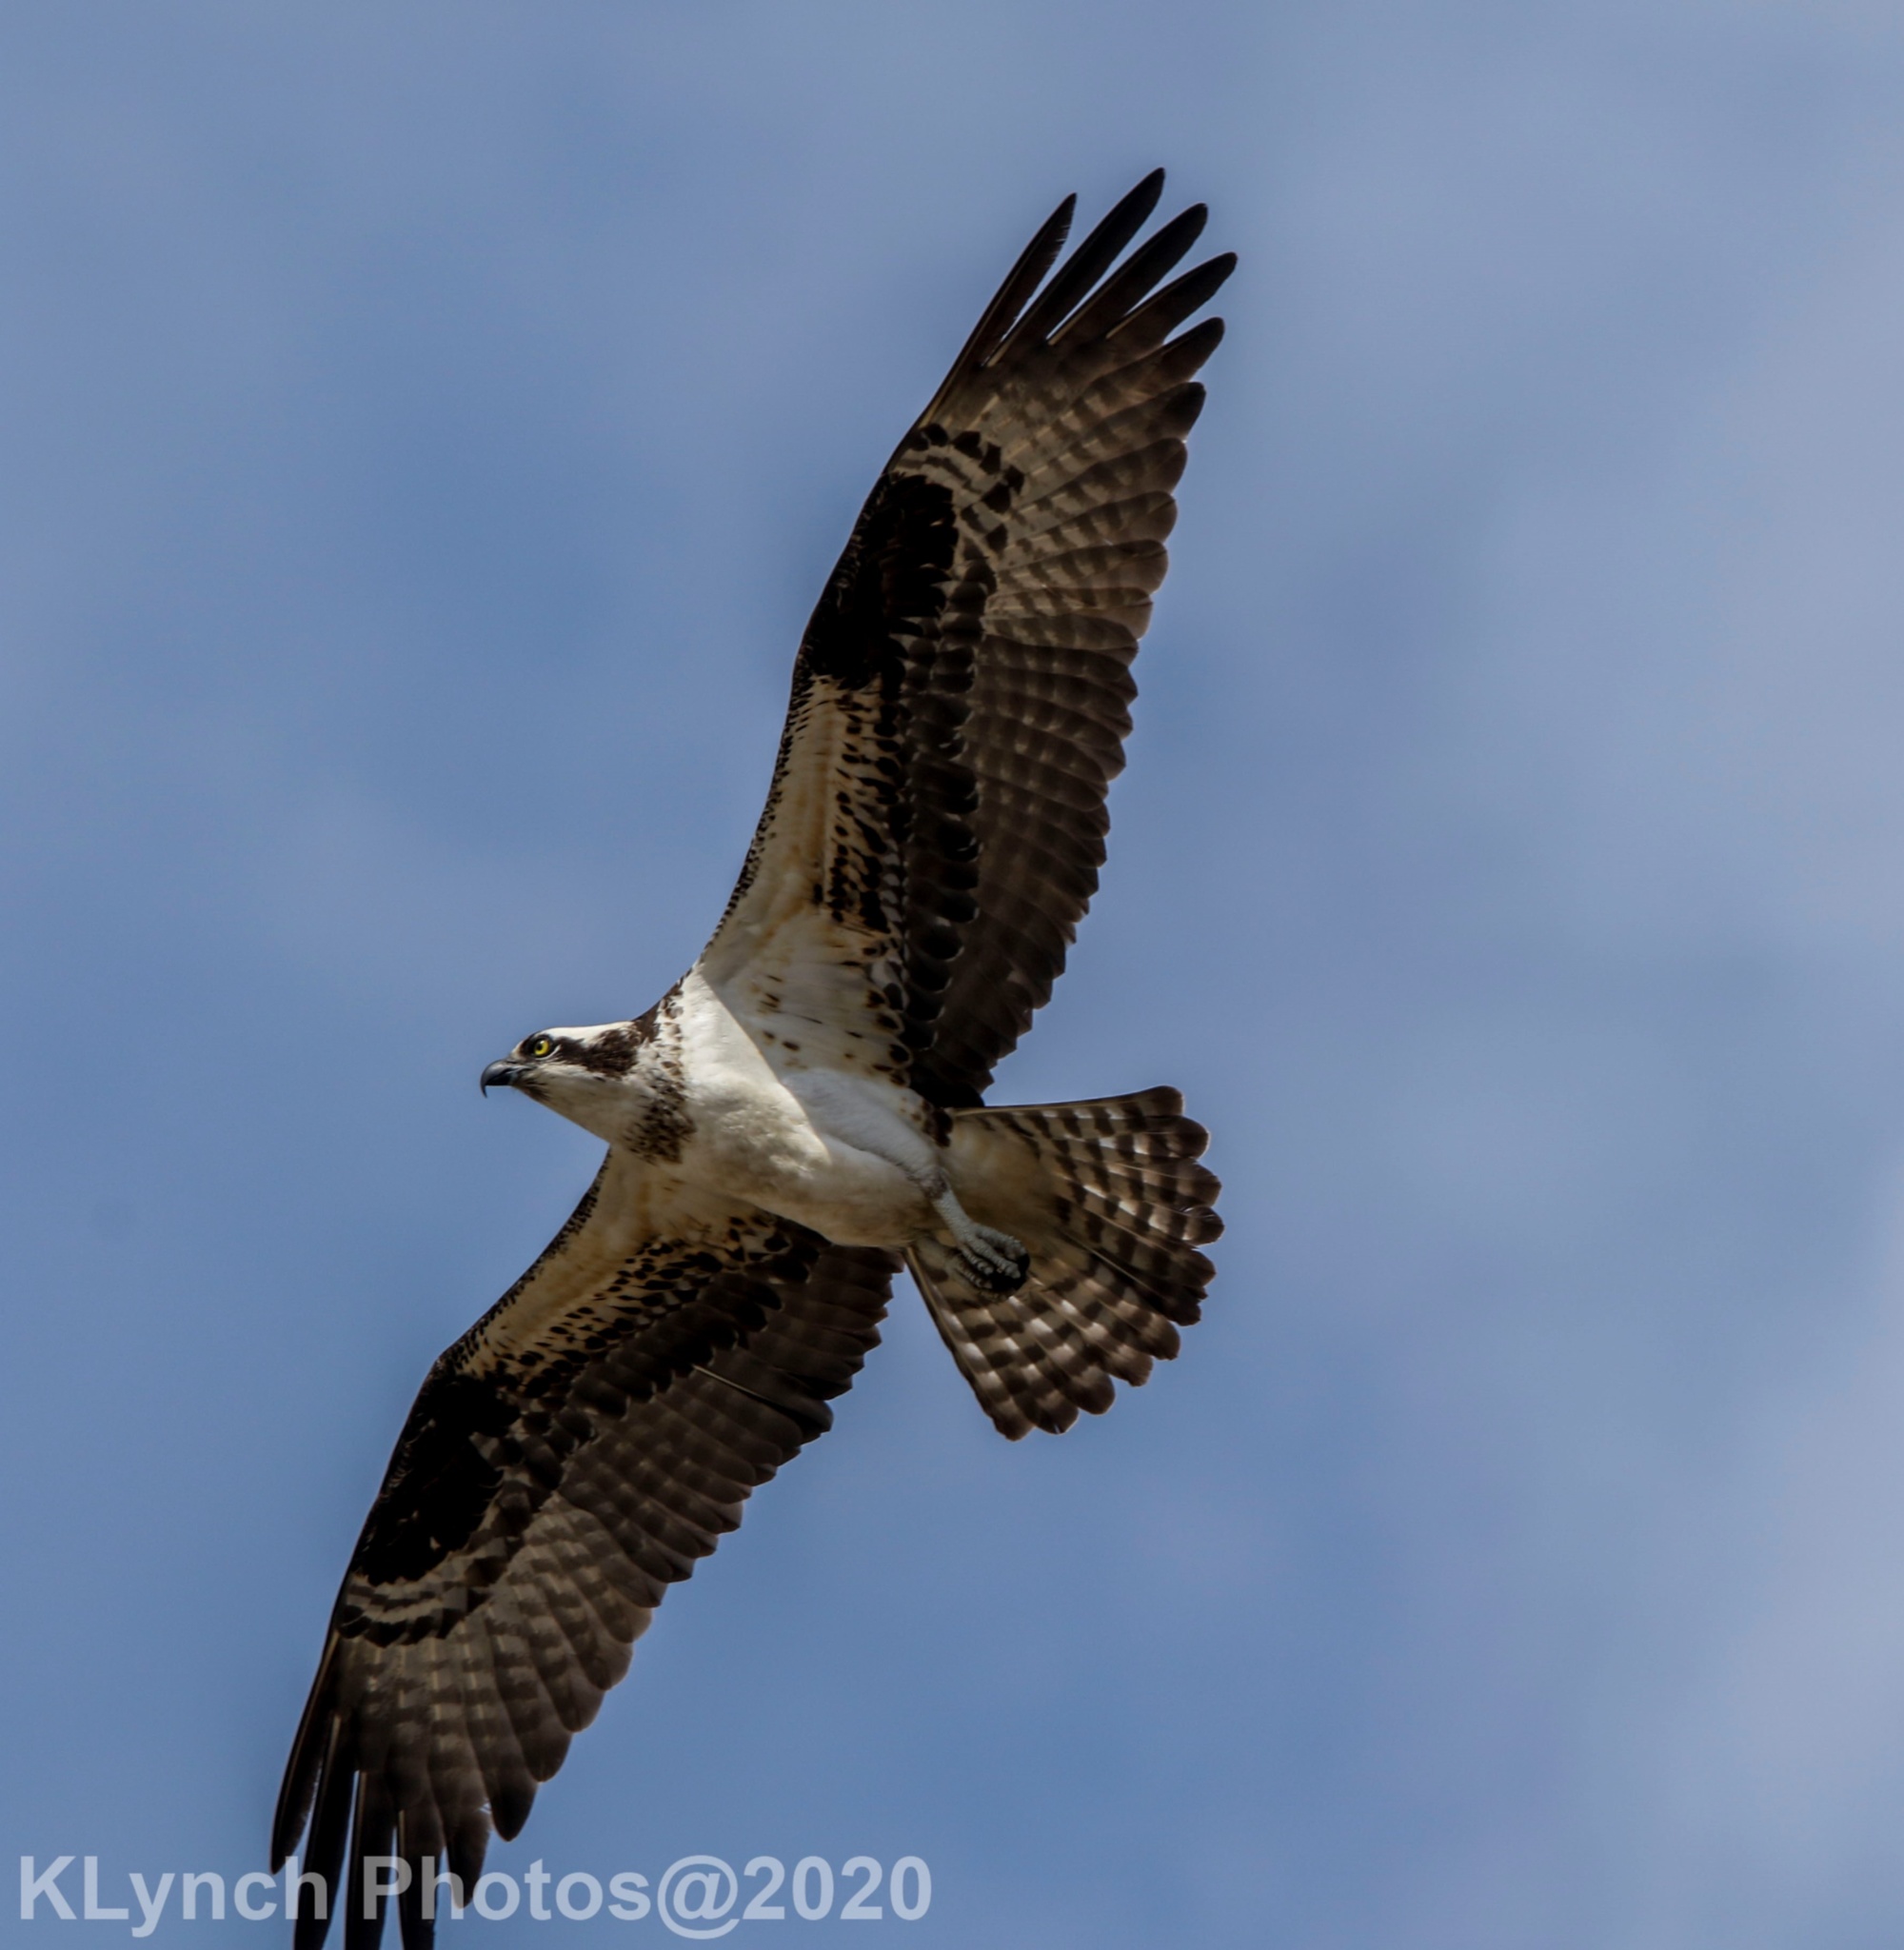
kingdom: Animalia
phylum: Chordata
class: Aves
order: Accipitriformes
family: Pandionidae
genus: Pandion
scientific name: Pandion haliaetus
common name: Osprey
